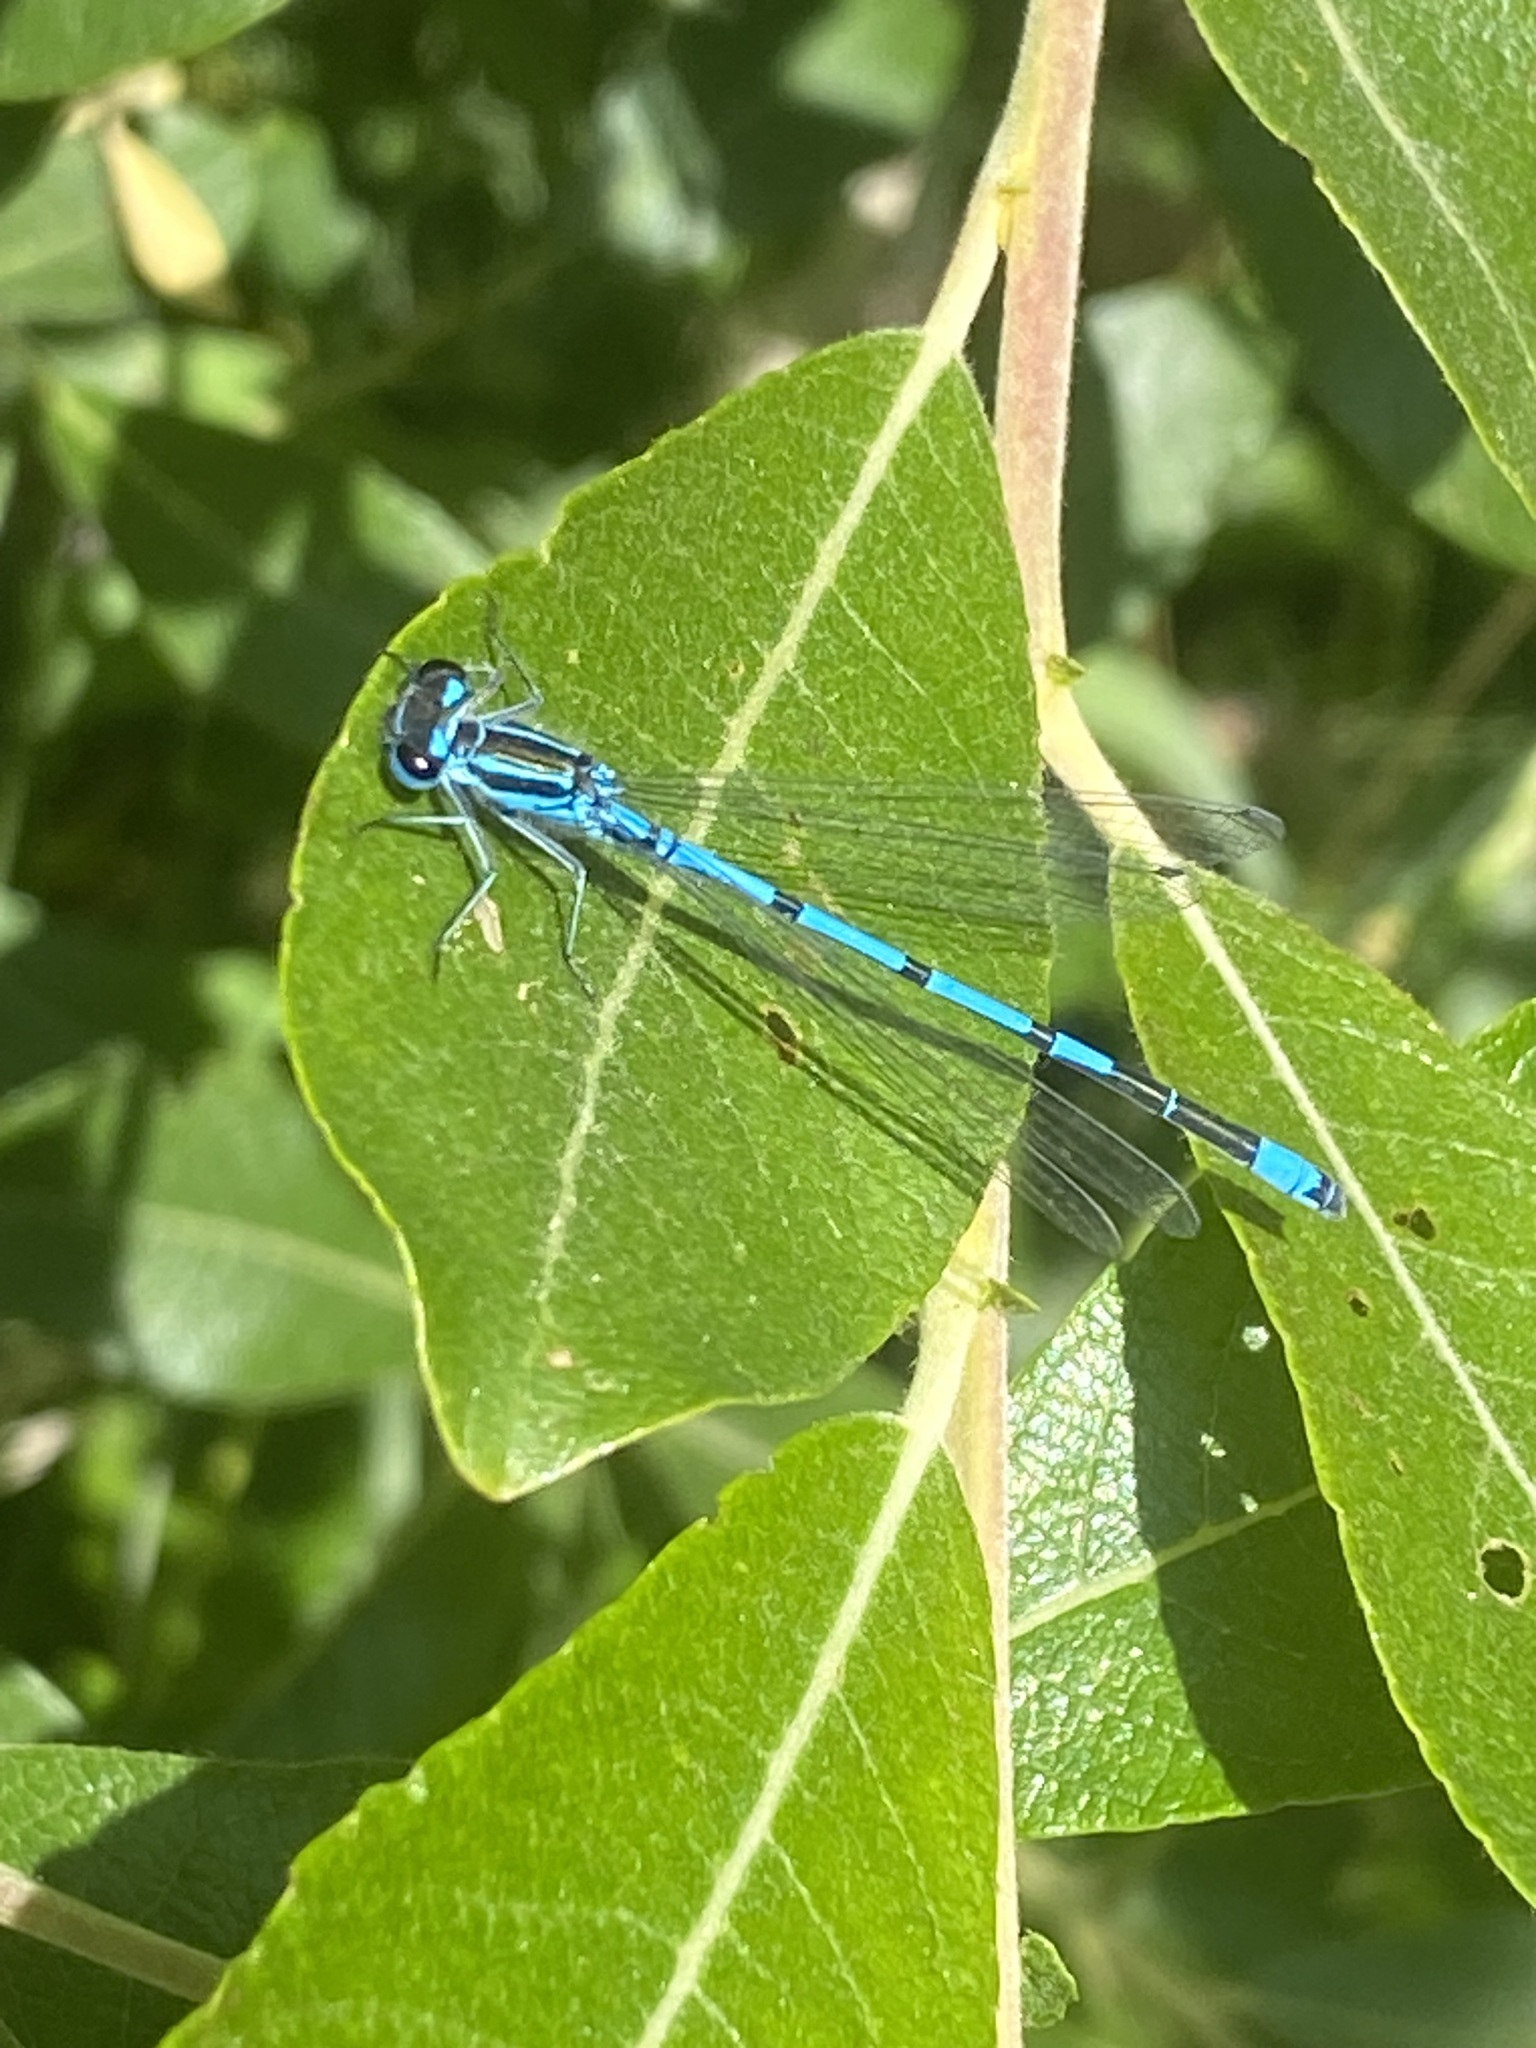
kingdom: Animalia
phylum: Arthropoda
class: Insecta
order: Odonata
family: Coenagrionidae
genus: Coenagrion
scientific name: Coenagrion puella
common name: Azure damselfly
